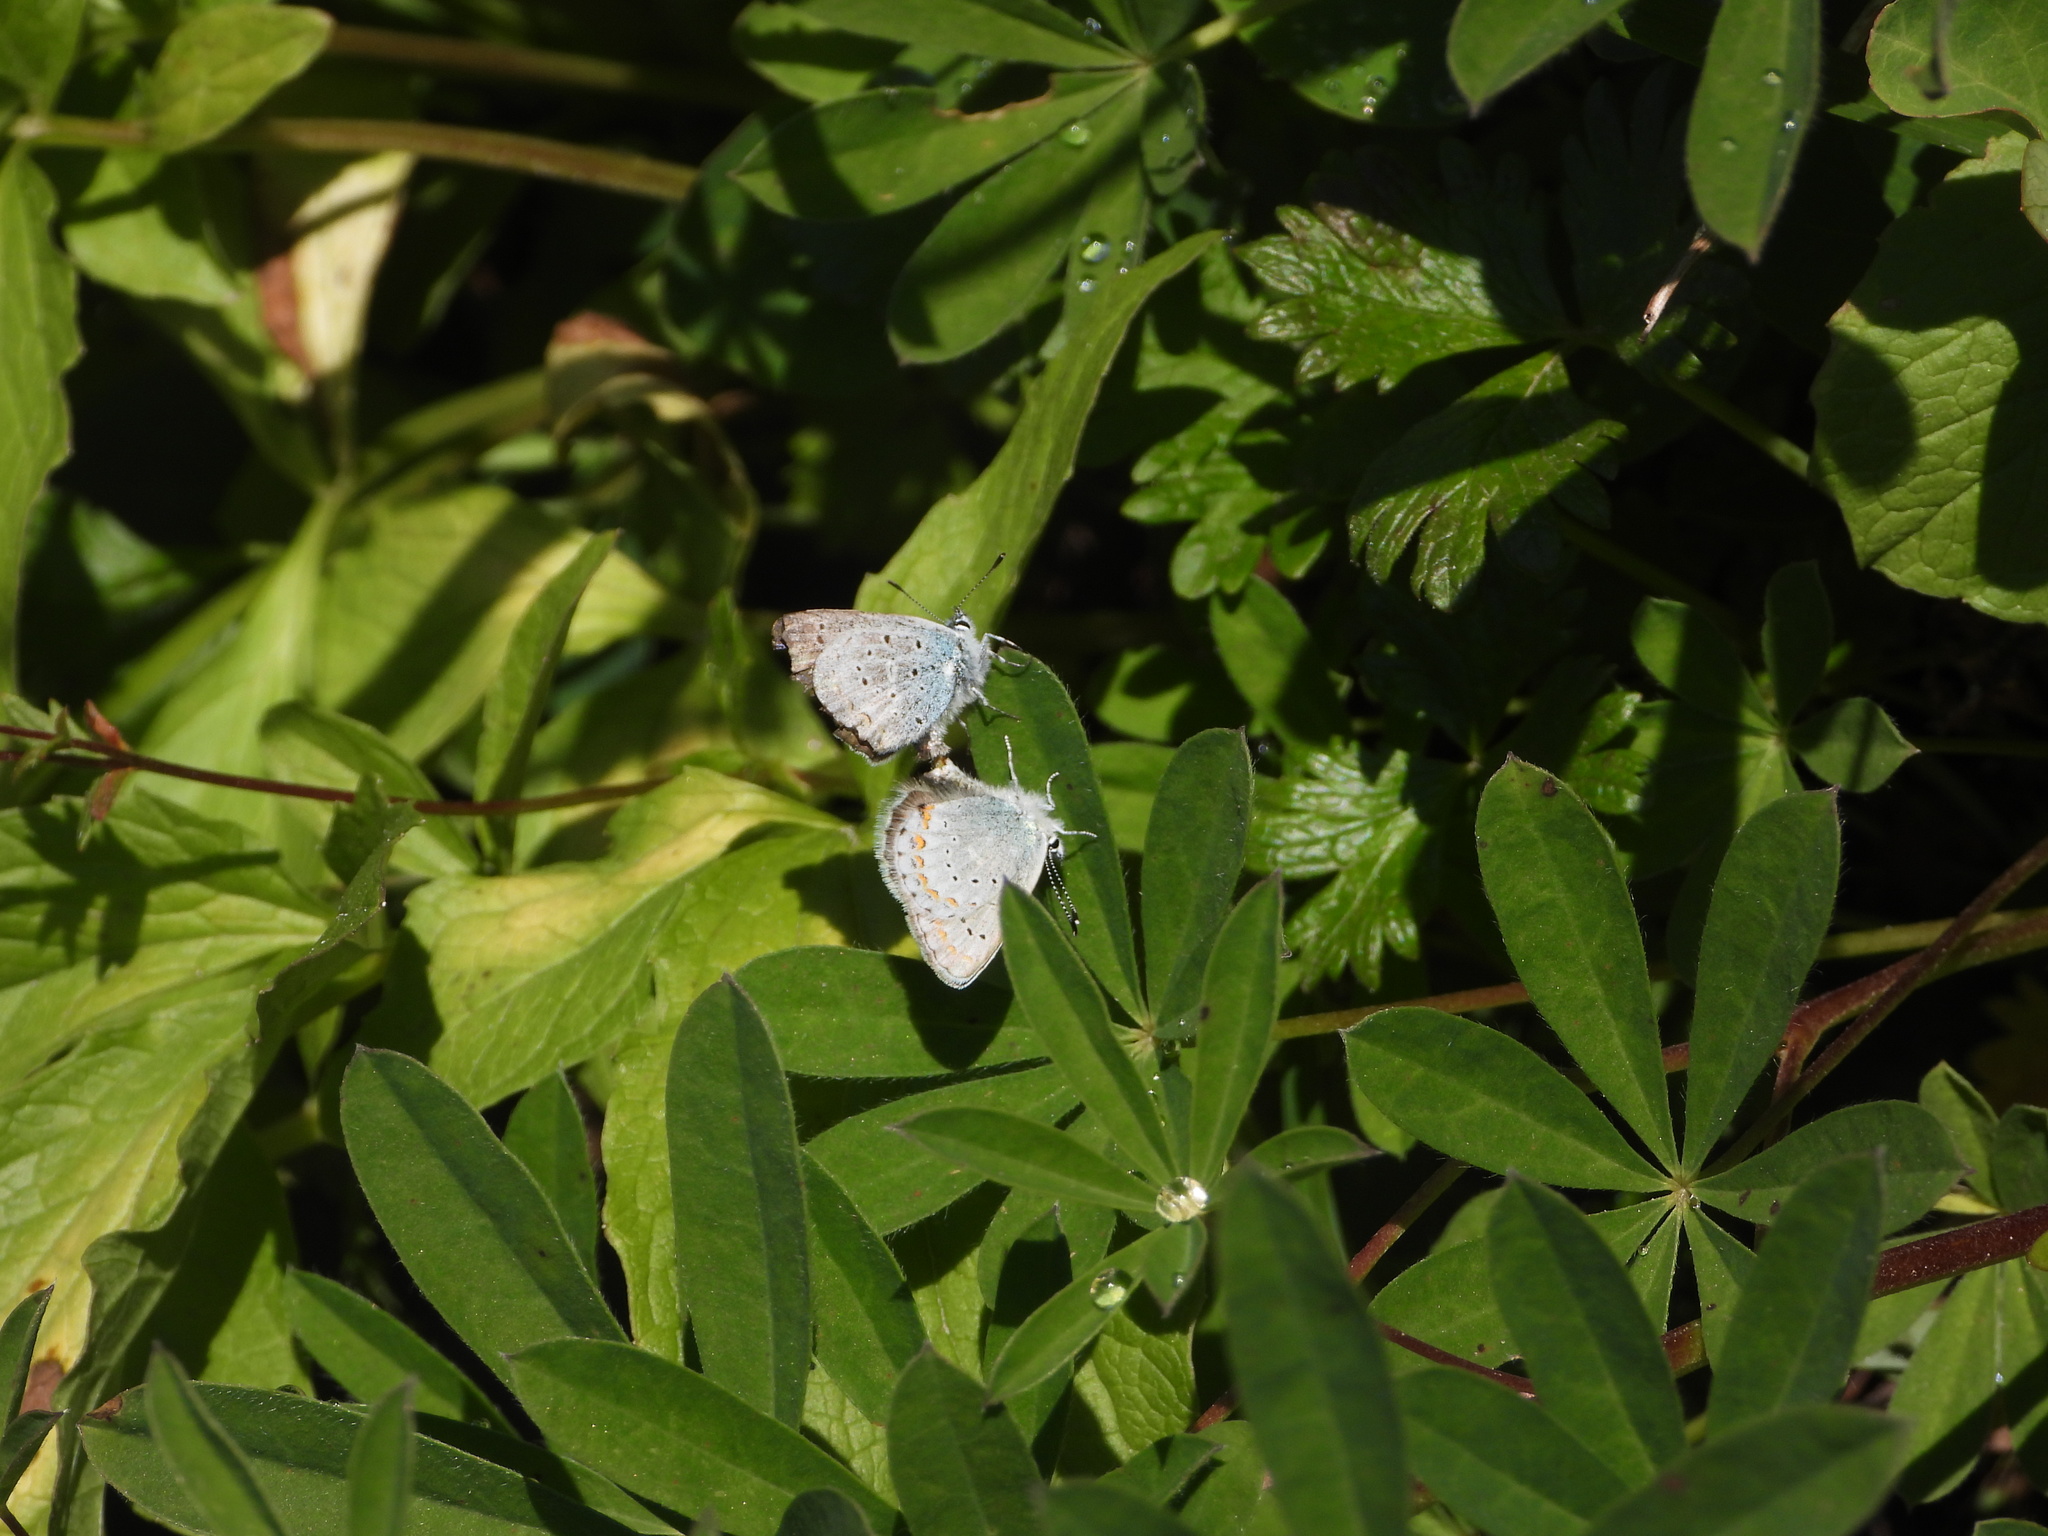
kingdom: Animalia
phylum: Arthropoda
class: Insecta
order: Lepidoptera
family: Lycaenidae
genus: Lycaeides
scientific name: Lycaeides anna
